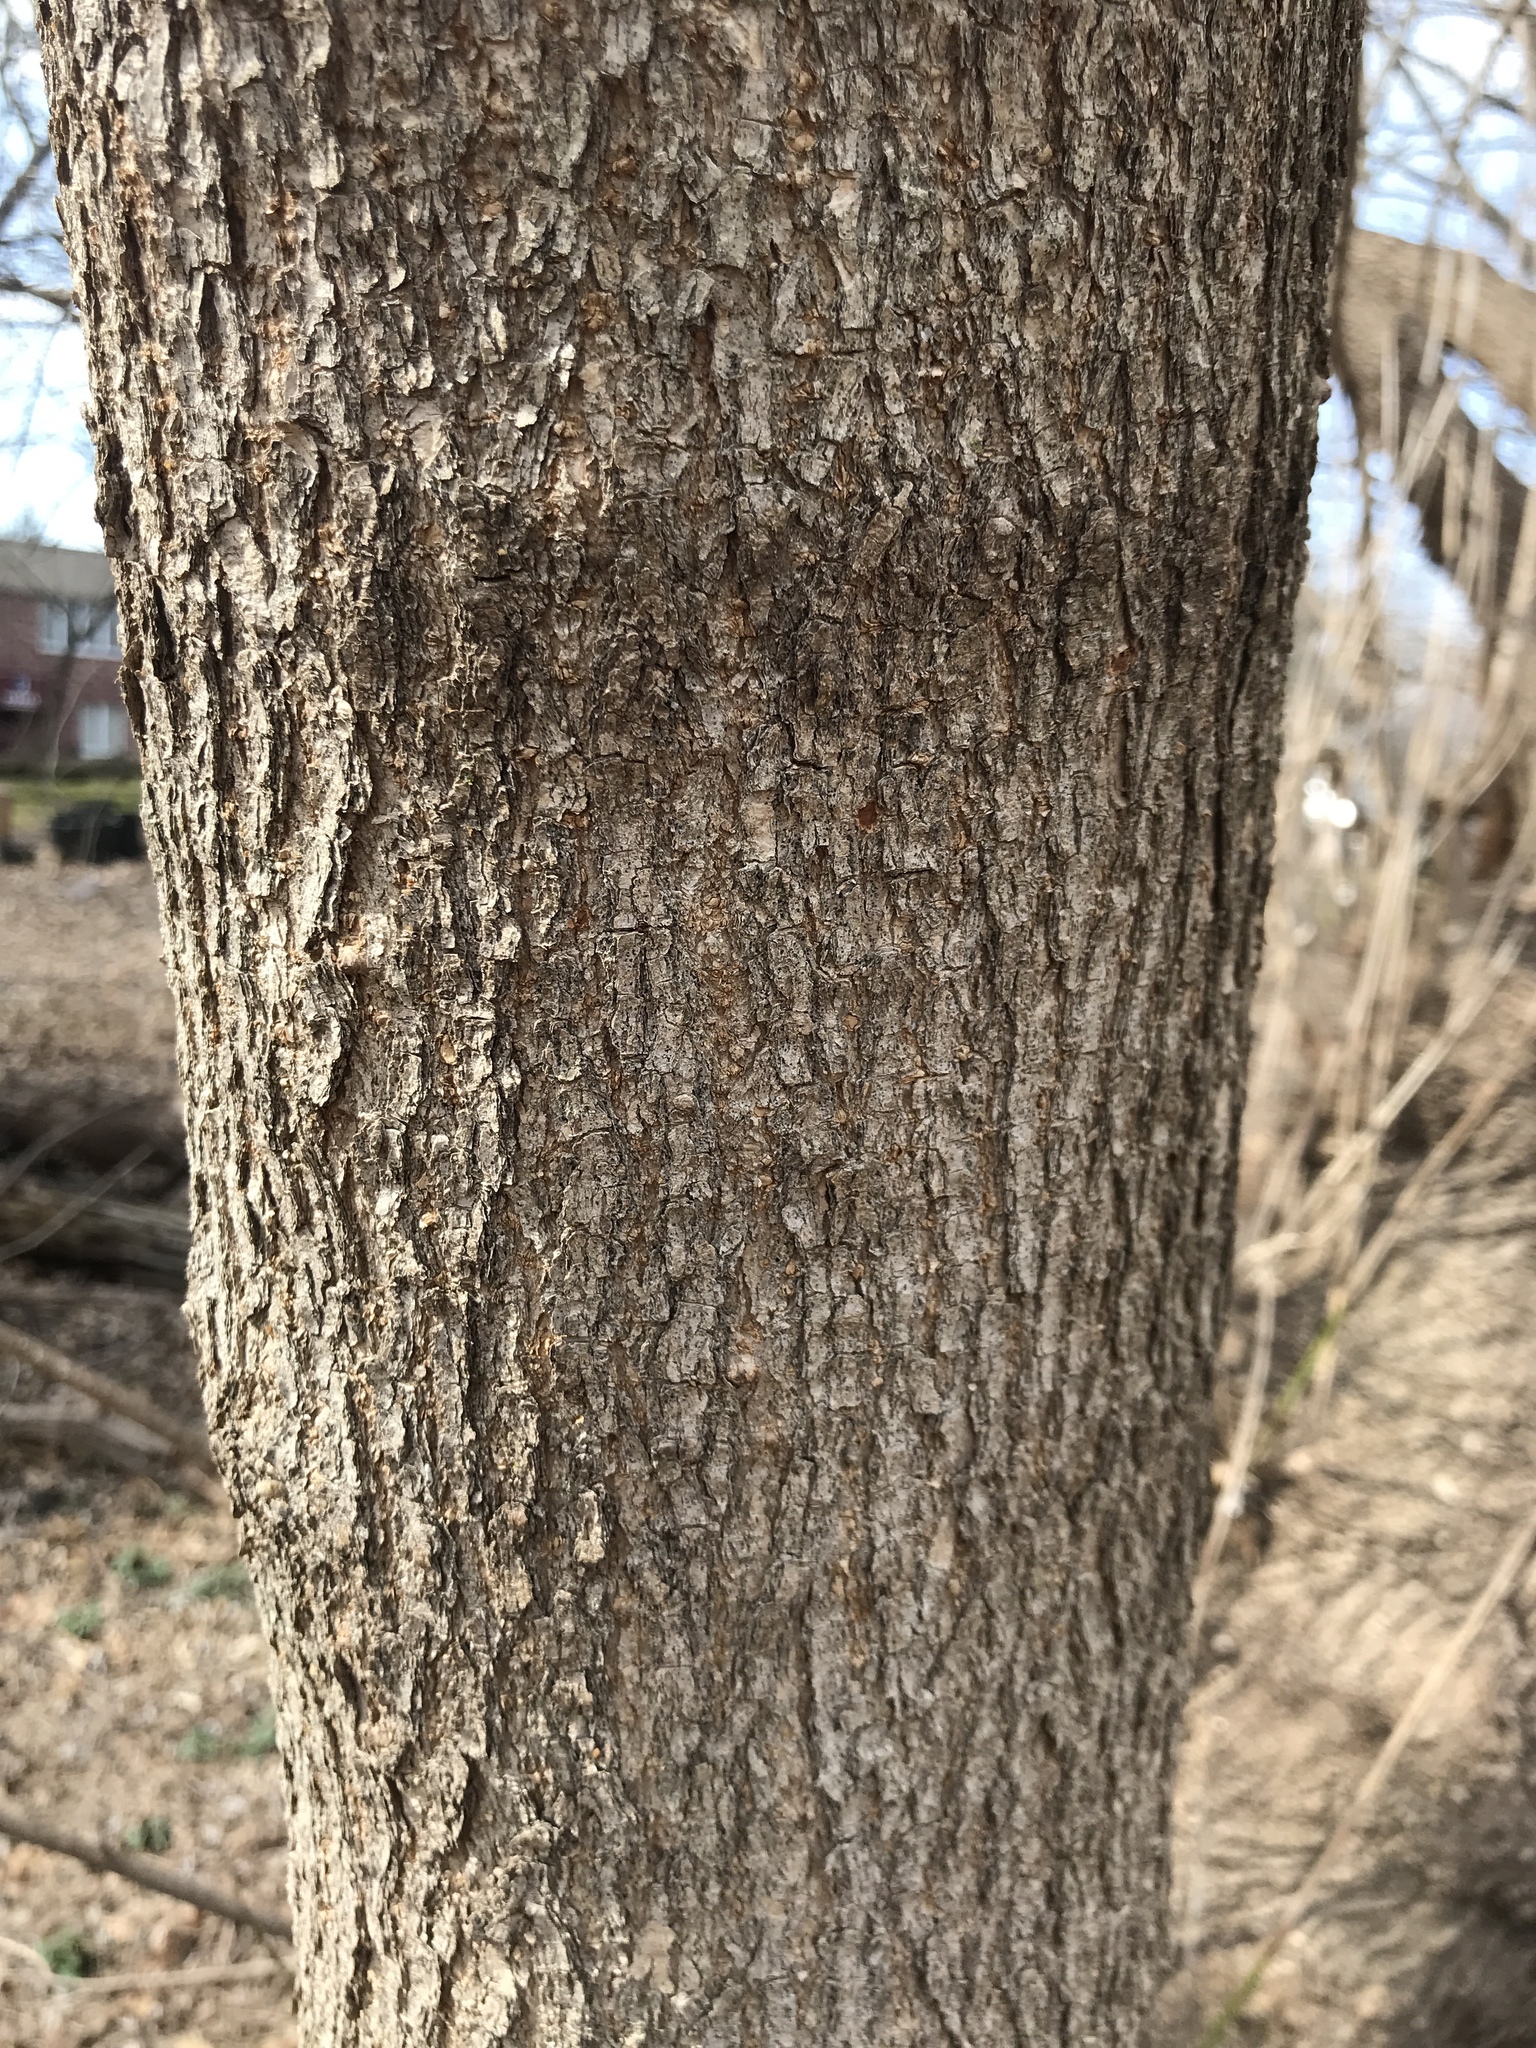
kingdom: Plantae
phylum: Tracheophyta
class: Magnoliopsida
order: Sapindales
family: Sapindaceae
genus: Acer
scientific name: Acer negundo
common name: Ashleaf maple
